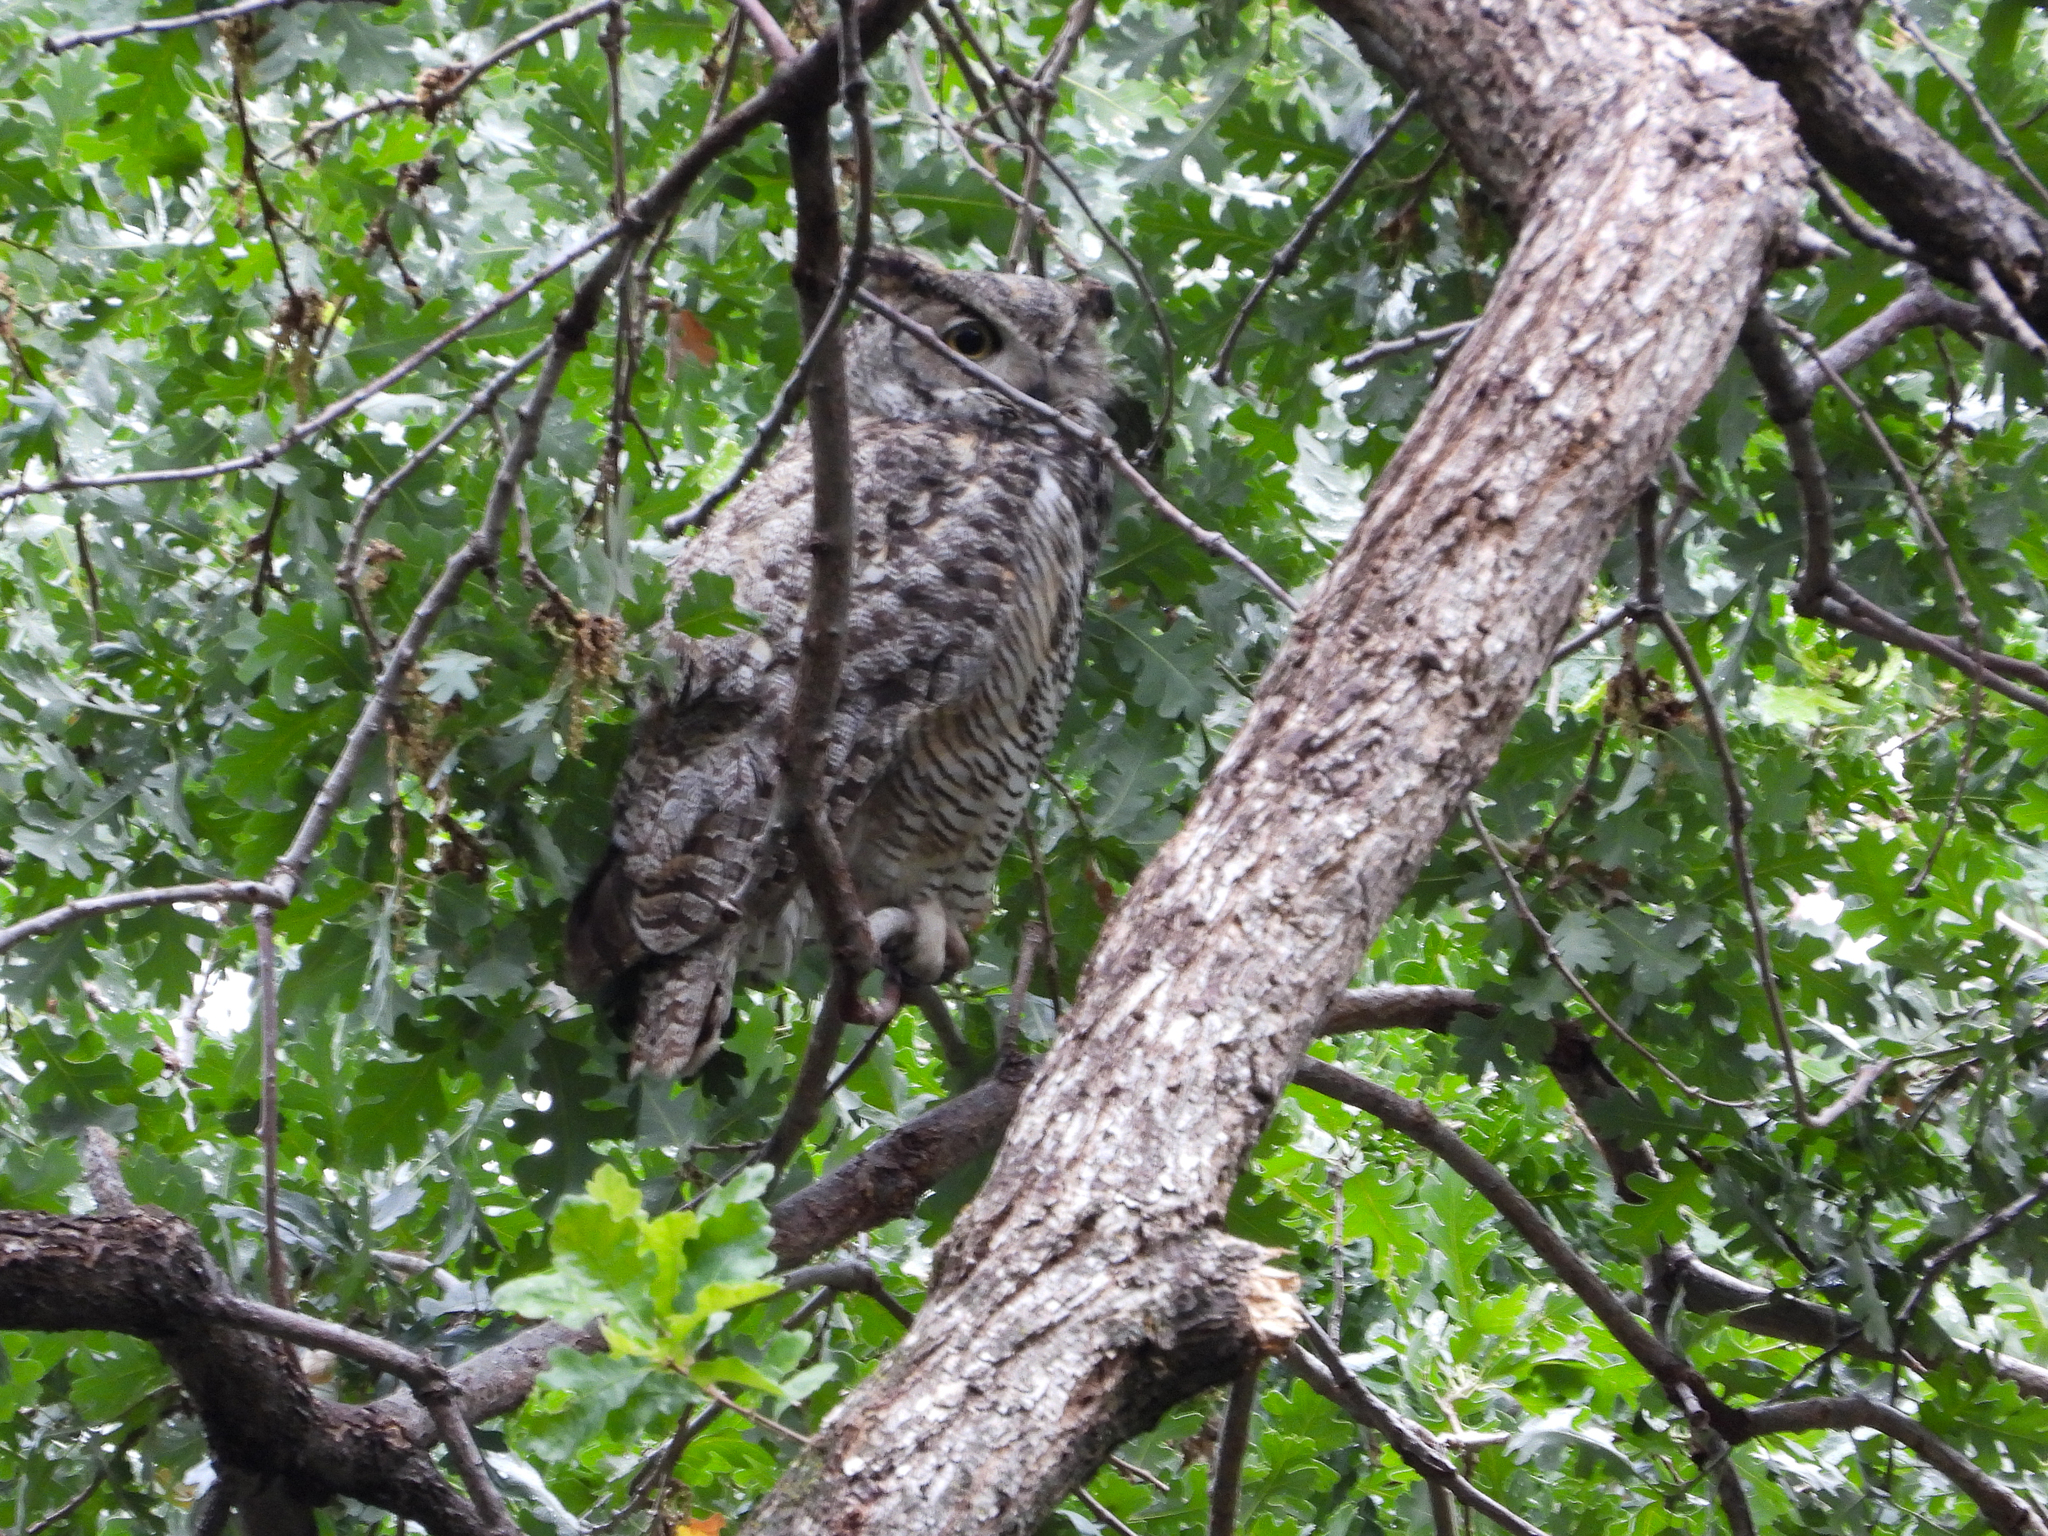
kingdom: Animalia
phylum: Chordata
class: Aves
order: Strigiformes
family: Strigidae
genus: Bubo
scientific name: Bubo virginianus
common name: Great horned owl
